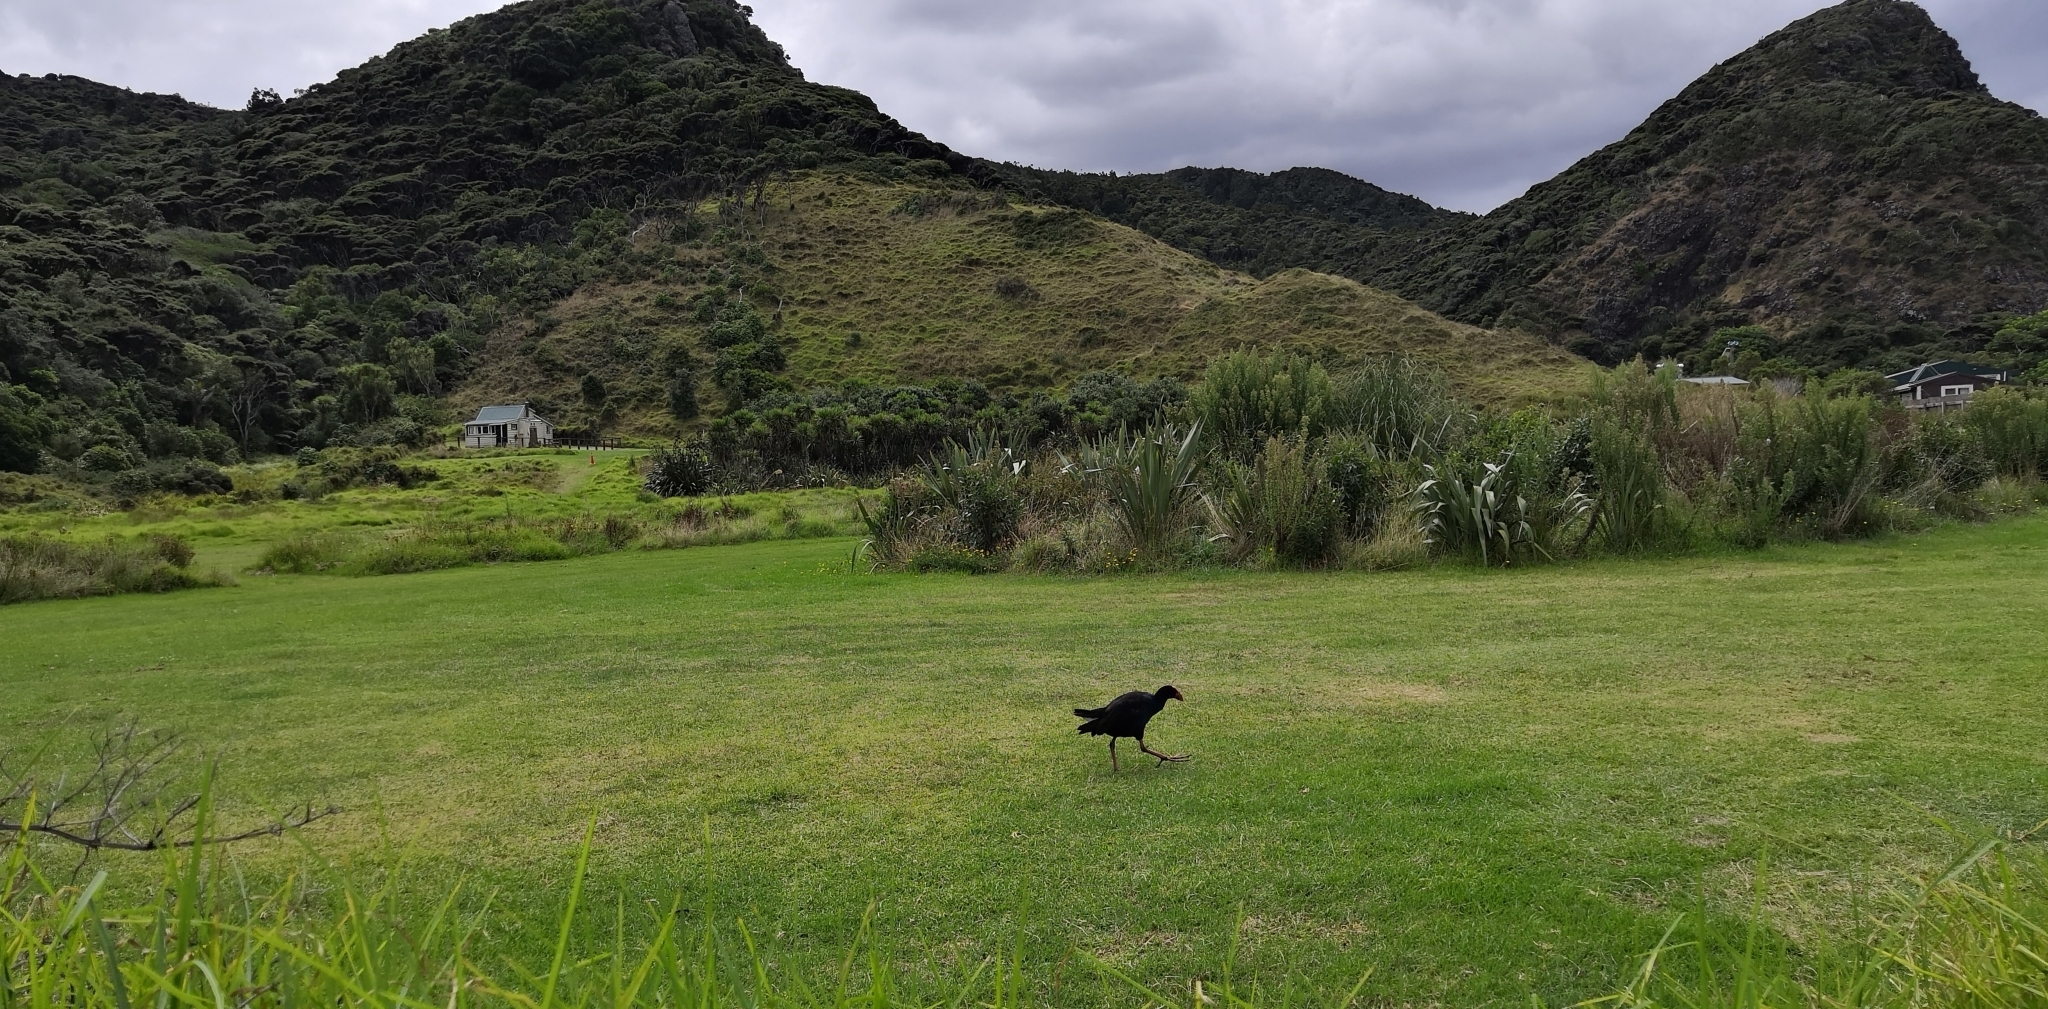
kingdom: Animalia
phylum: Chordata
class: Aves
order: Gruiformes
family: Rallidae
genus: Porphyrio
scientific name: Porphyrio melanotus
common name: Australasian swamphen
